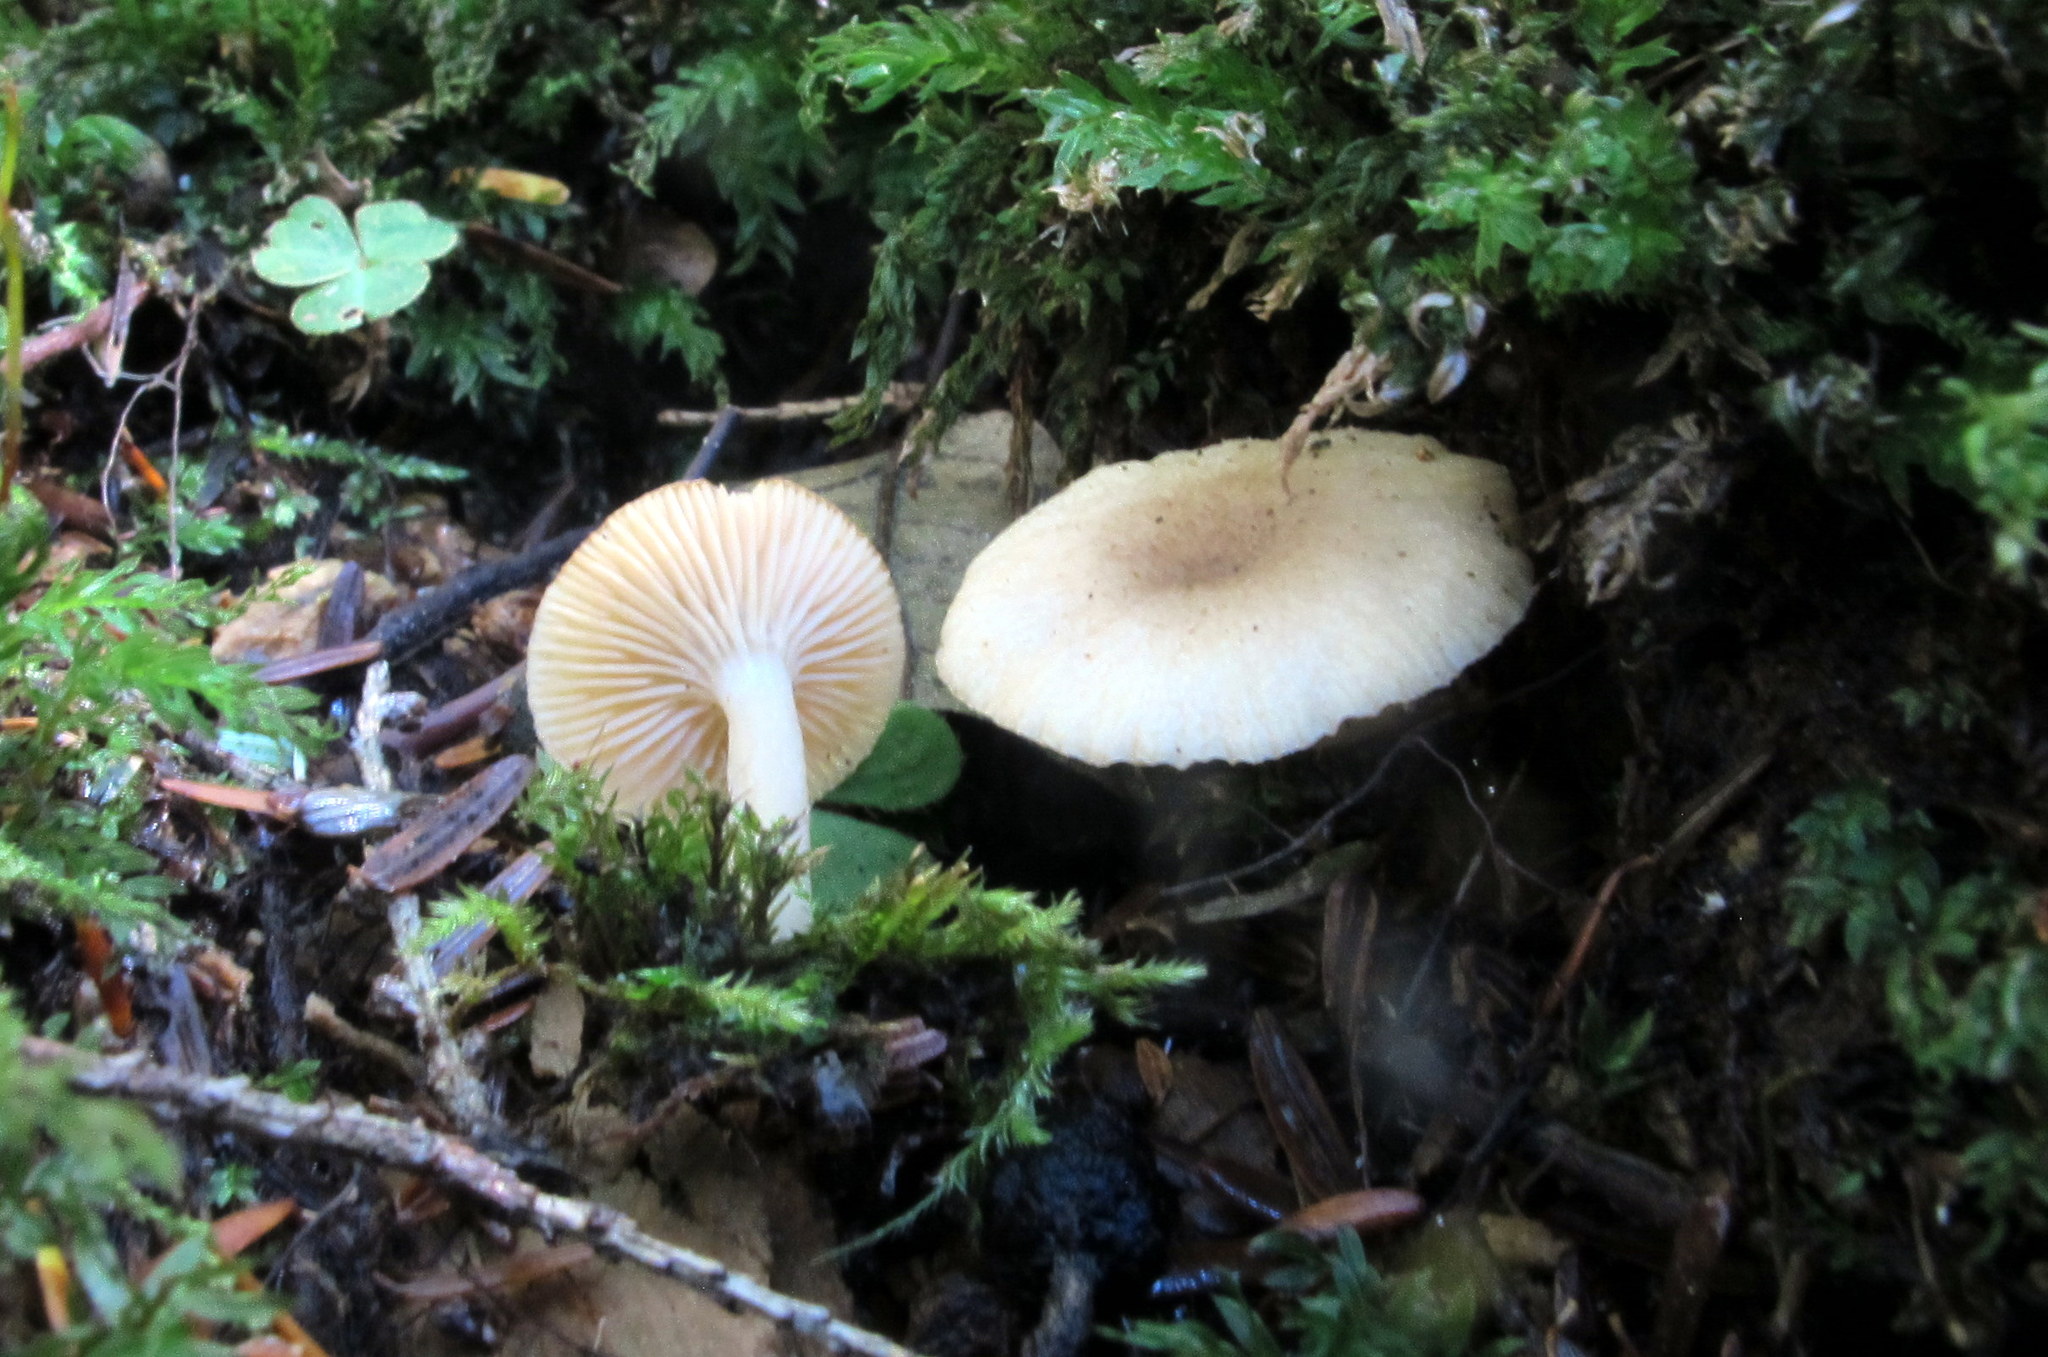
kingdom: Fungi
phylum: Basidiomycota
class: Agaricomycetes
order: Russulales
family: Russulaceae
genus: Lactarius
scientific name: Lactarius cinereus
